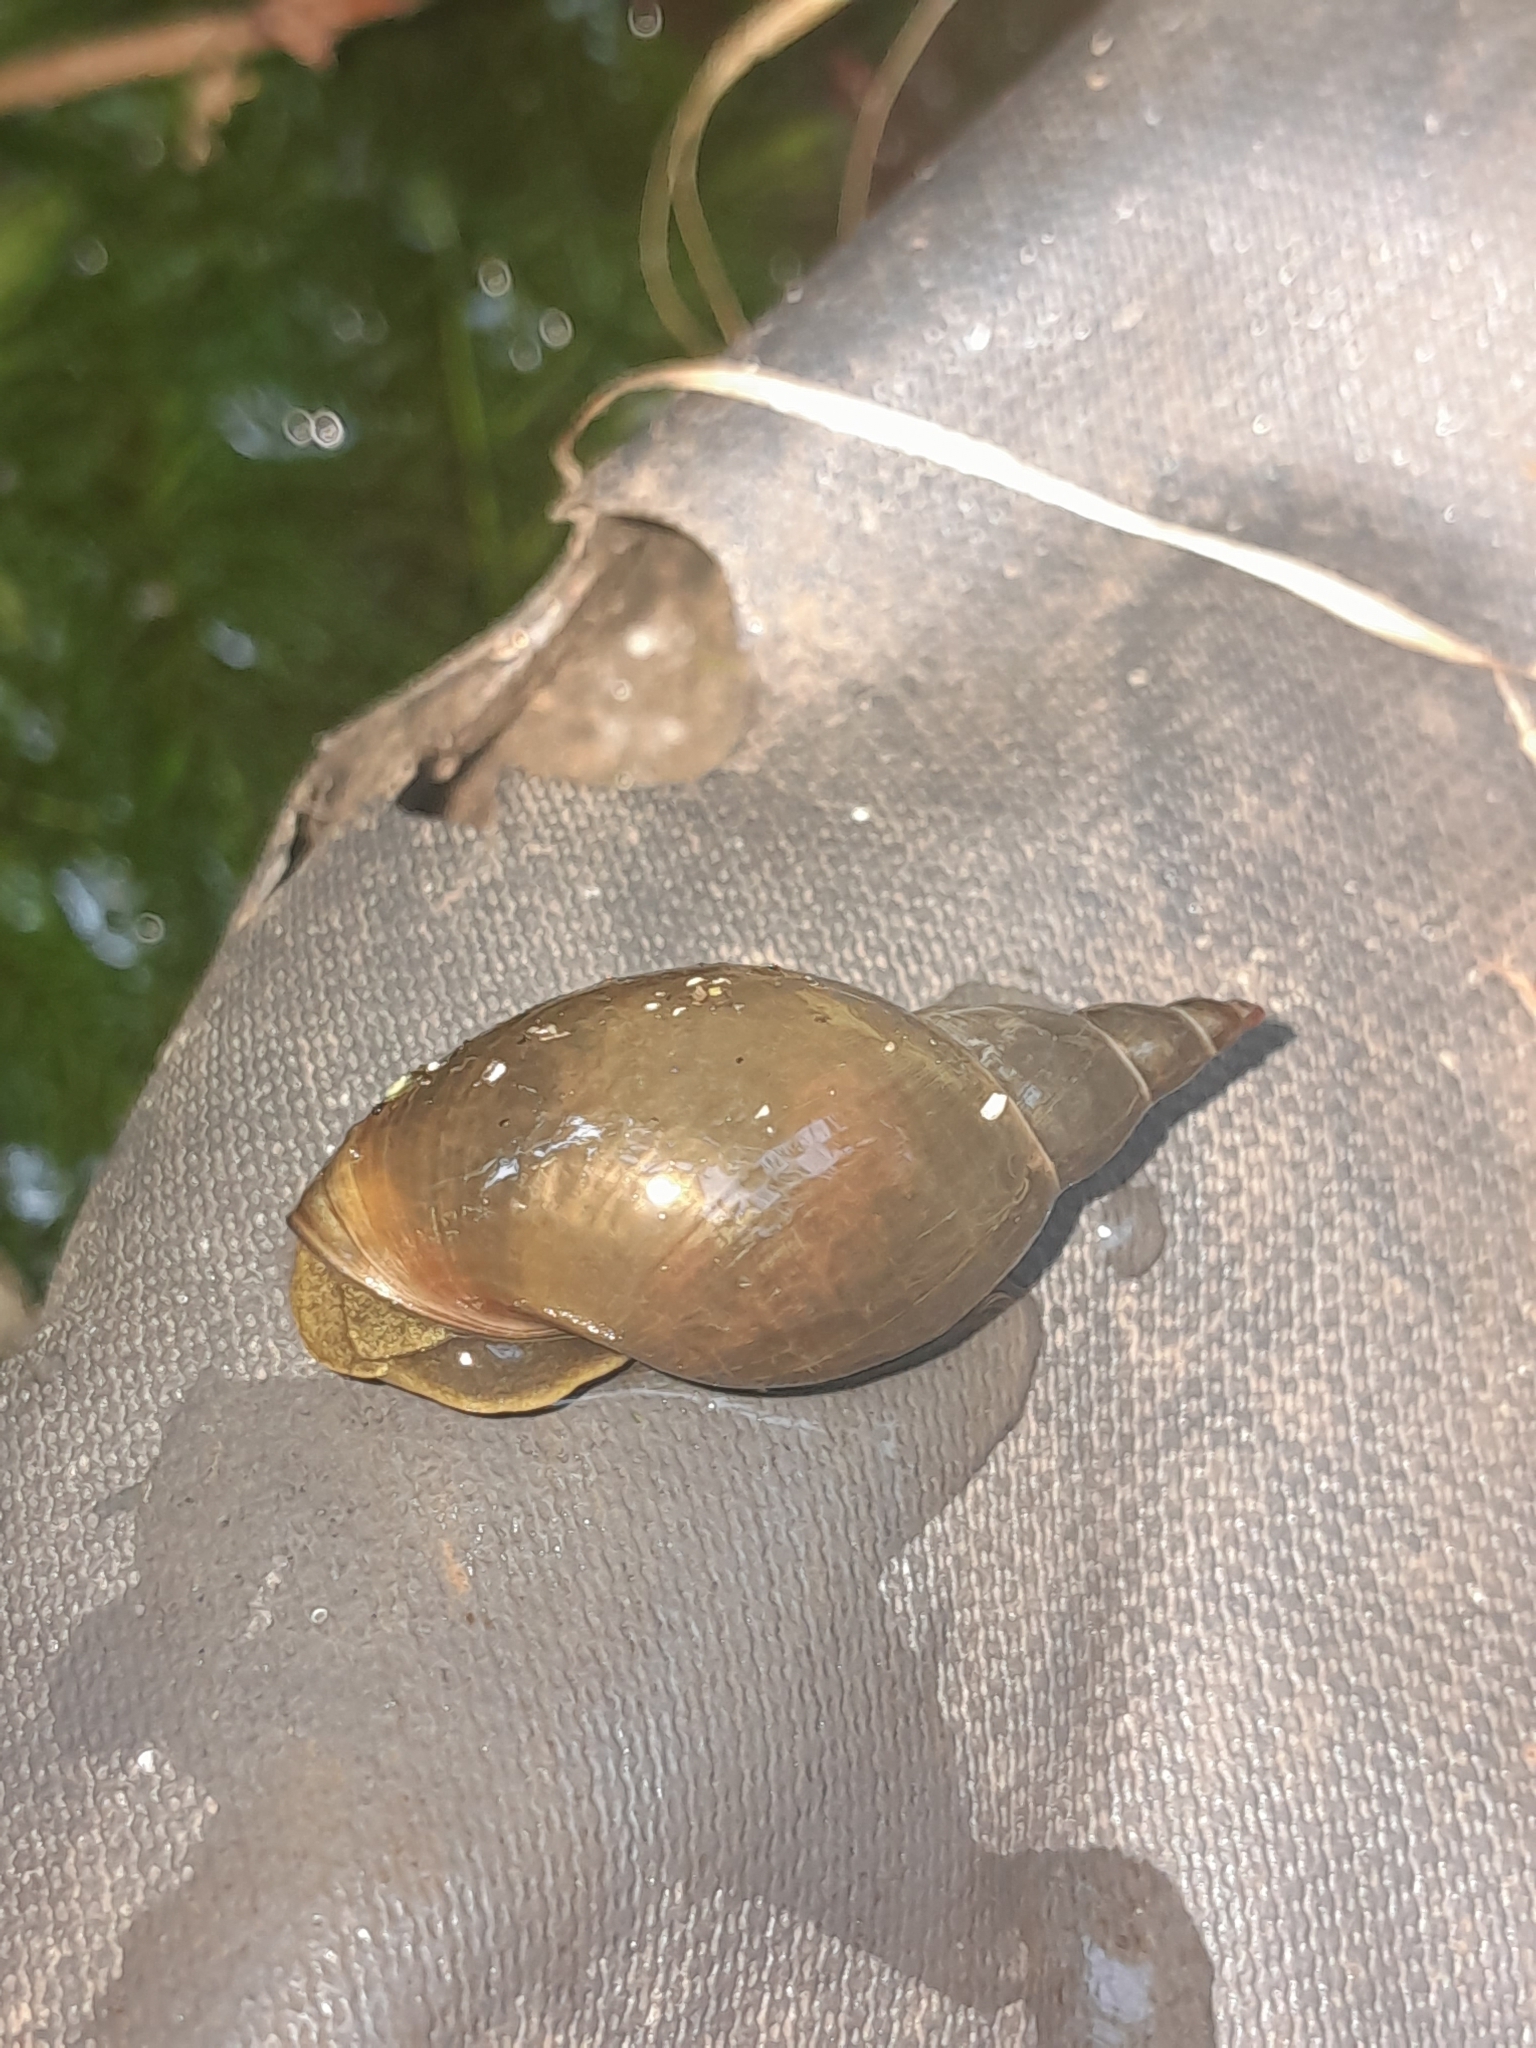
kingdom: Animalia
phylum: Mollusca
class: Gastropoda
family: Lymnaeidae
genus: Lymnaea
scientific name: Lymnaea stagnalis
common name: Great pond snail
